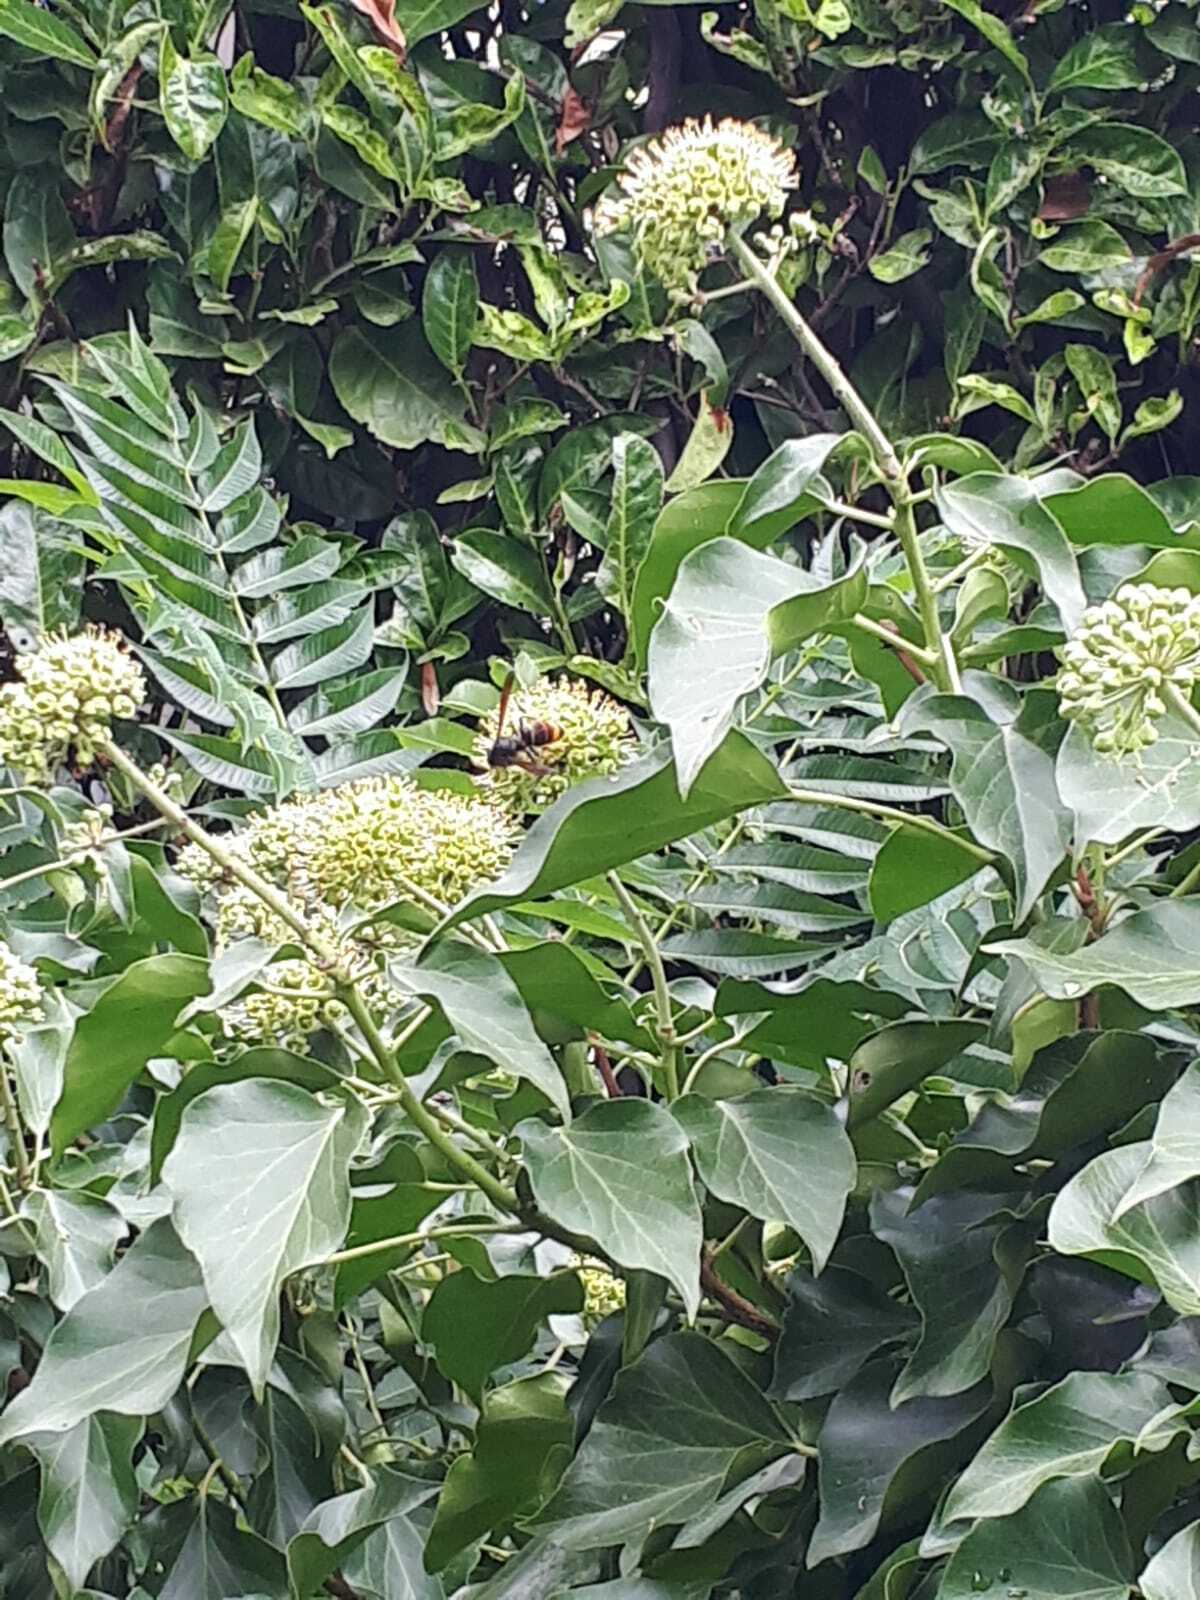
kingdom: Animalia
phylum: Arthropoda
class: Insecta
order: Hymenoptera
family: Vespidae
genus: Vespa
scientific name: Vespa velutina
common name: Asian hornet
